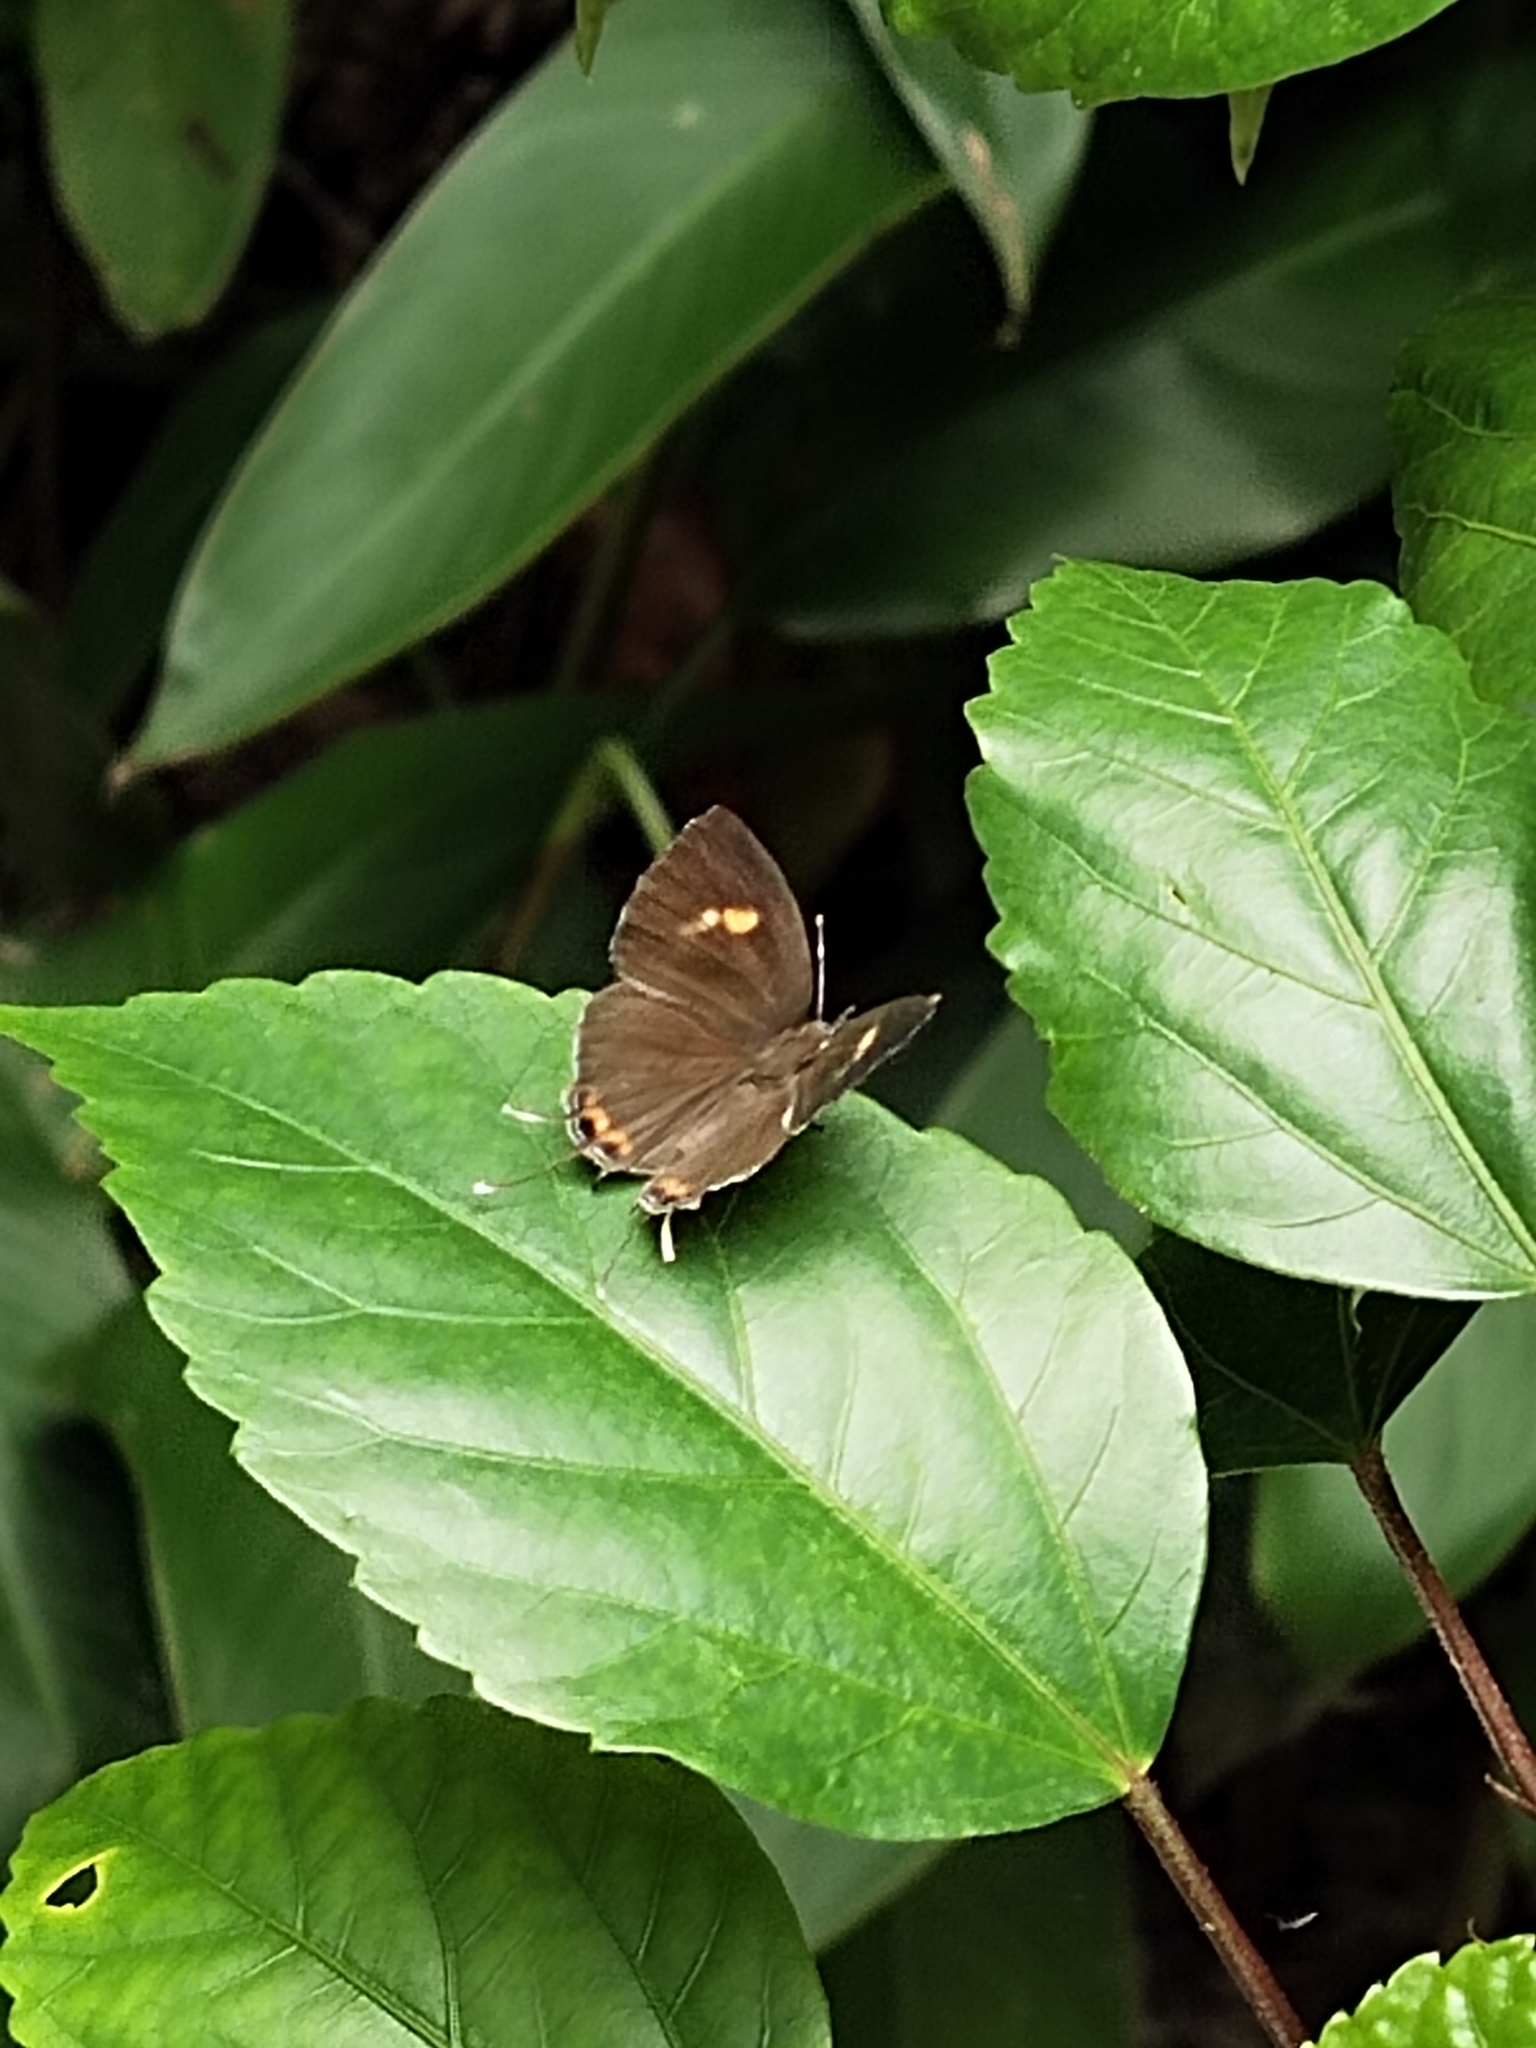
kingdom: Animalia
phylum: Arthropoda
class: Insecta
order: Lepidoptera
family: Lycaenidae
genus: Rathinda
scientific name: Rathinda amor
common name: Monkey puzzle
